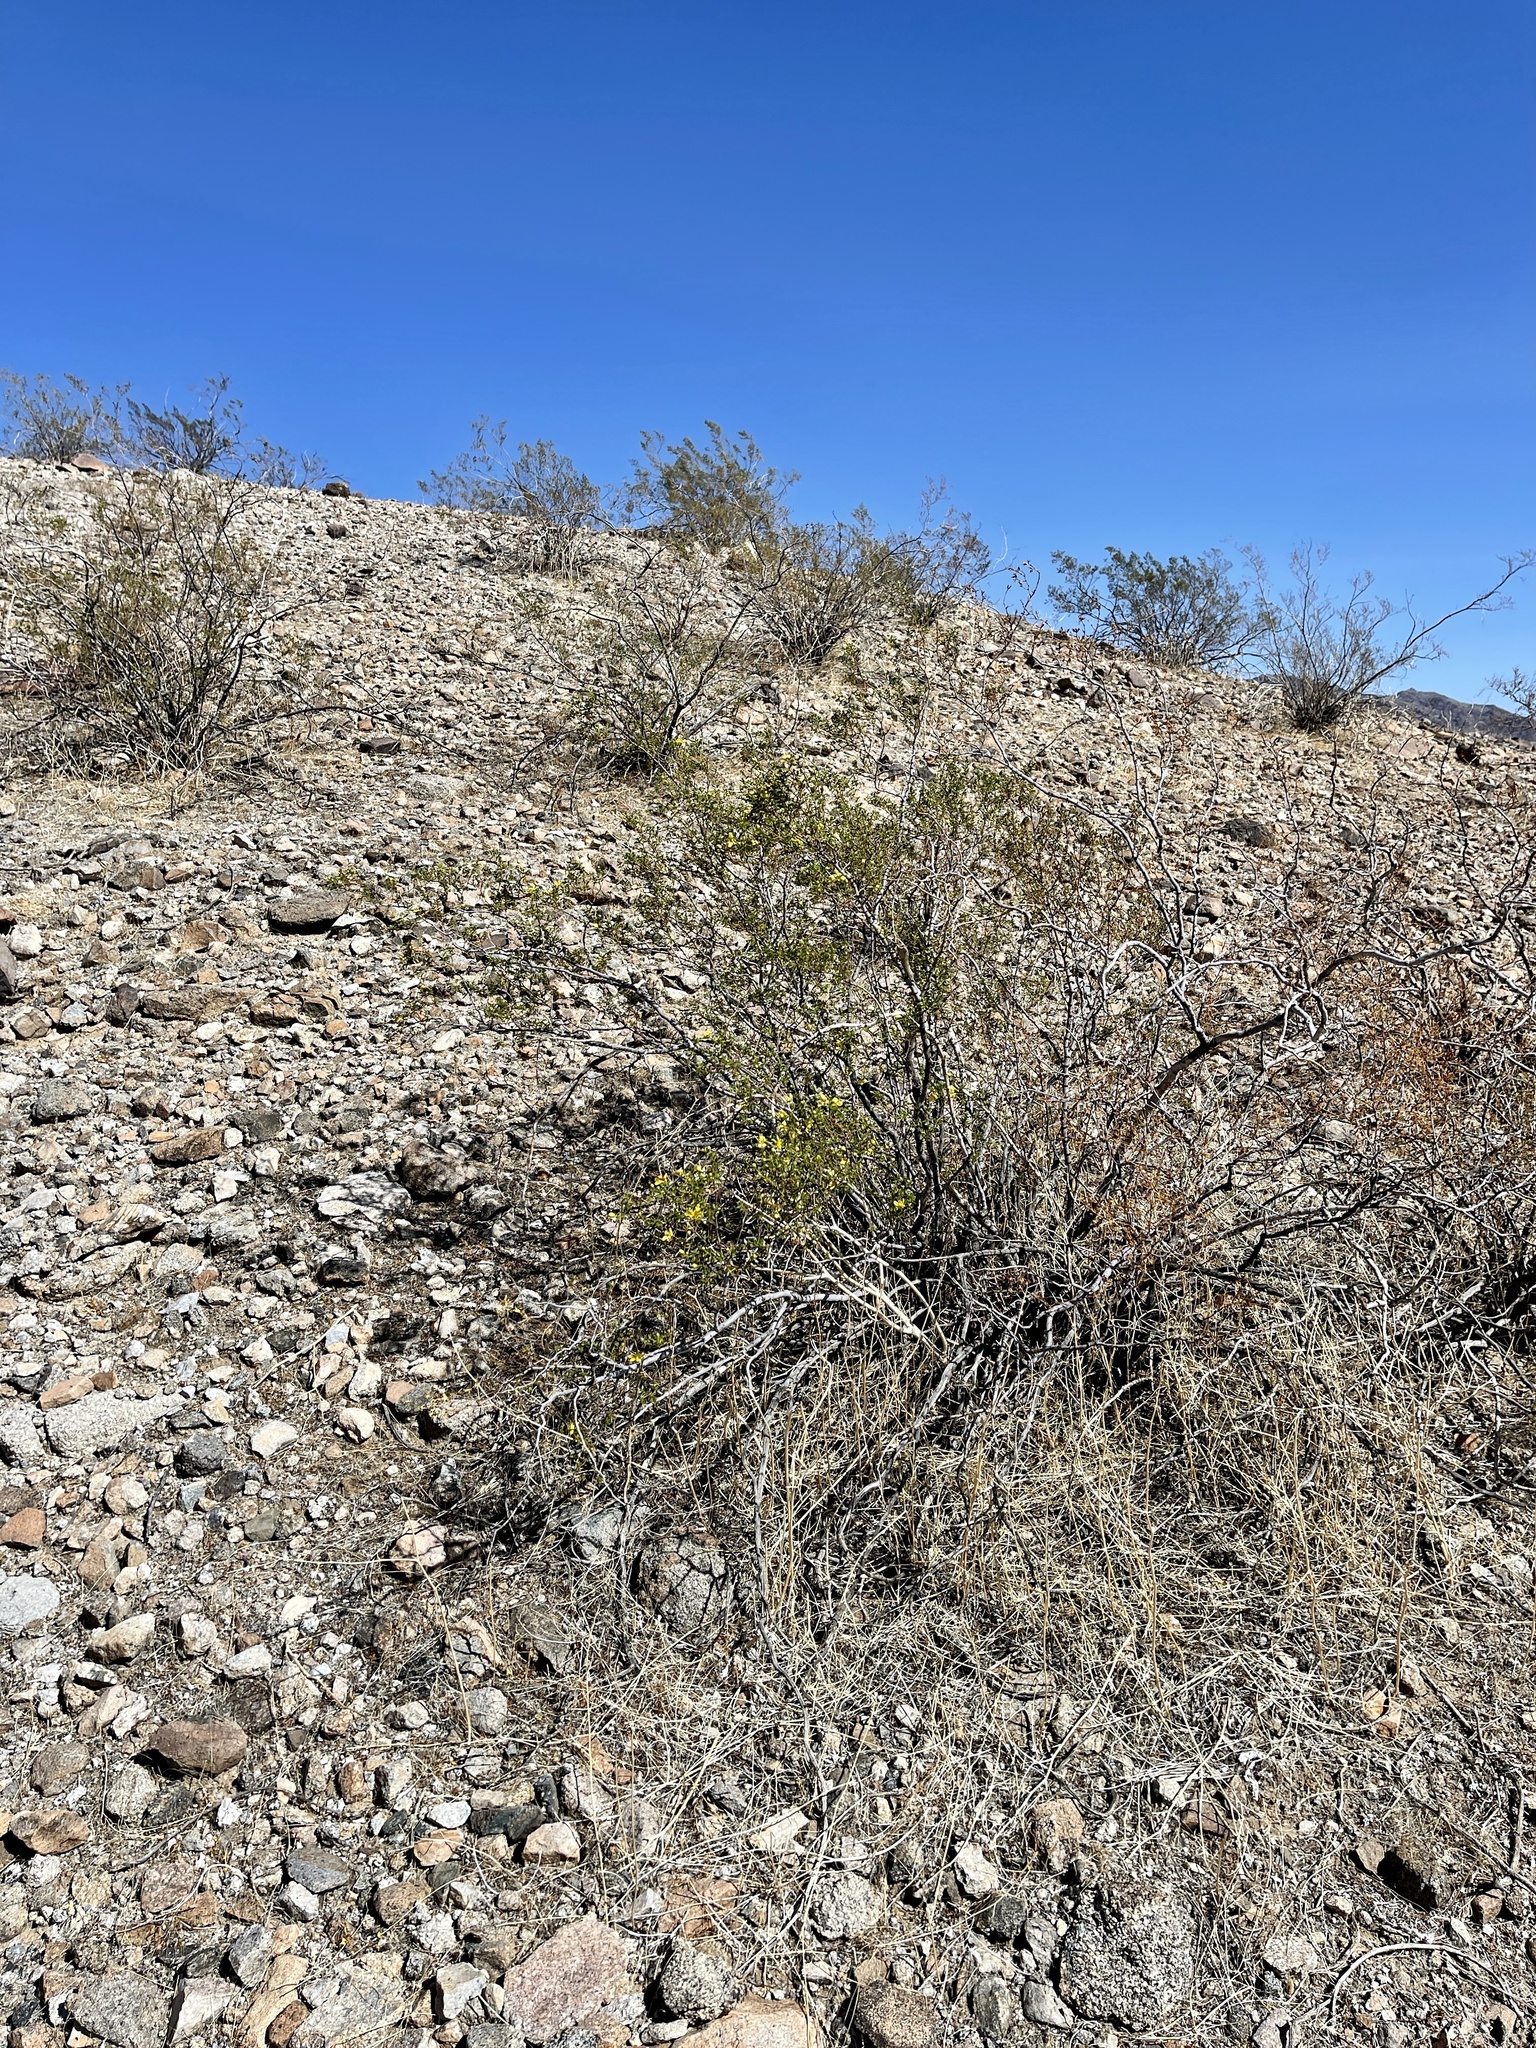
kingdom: Plantae
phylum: Tracheophyta
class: Magnoliopsida
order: Zygophyllales
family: Zygophyllaceae
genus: Larrea
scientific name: Larrea tridentata
